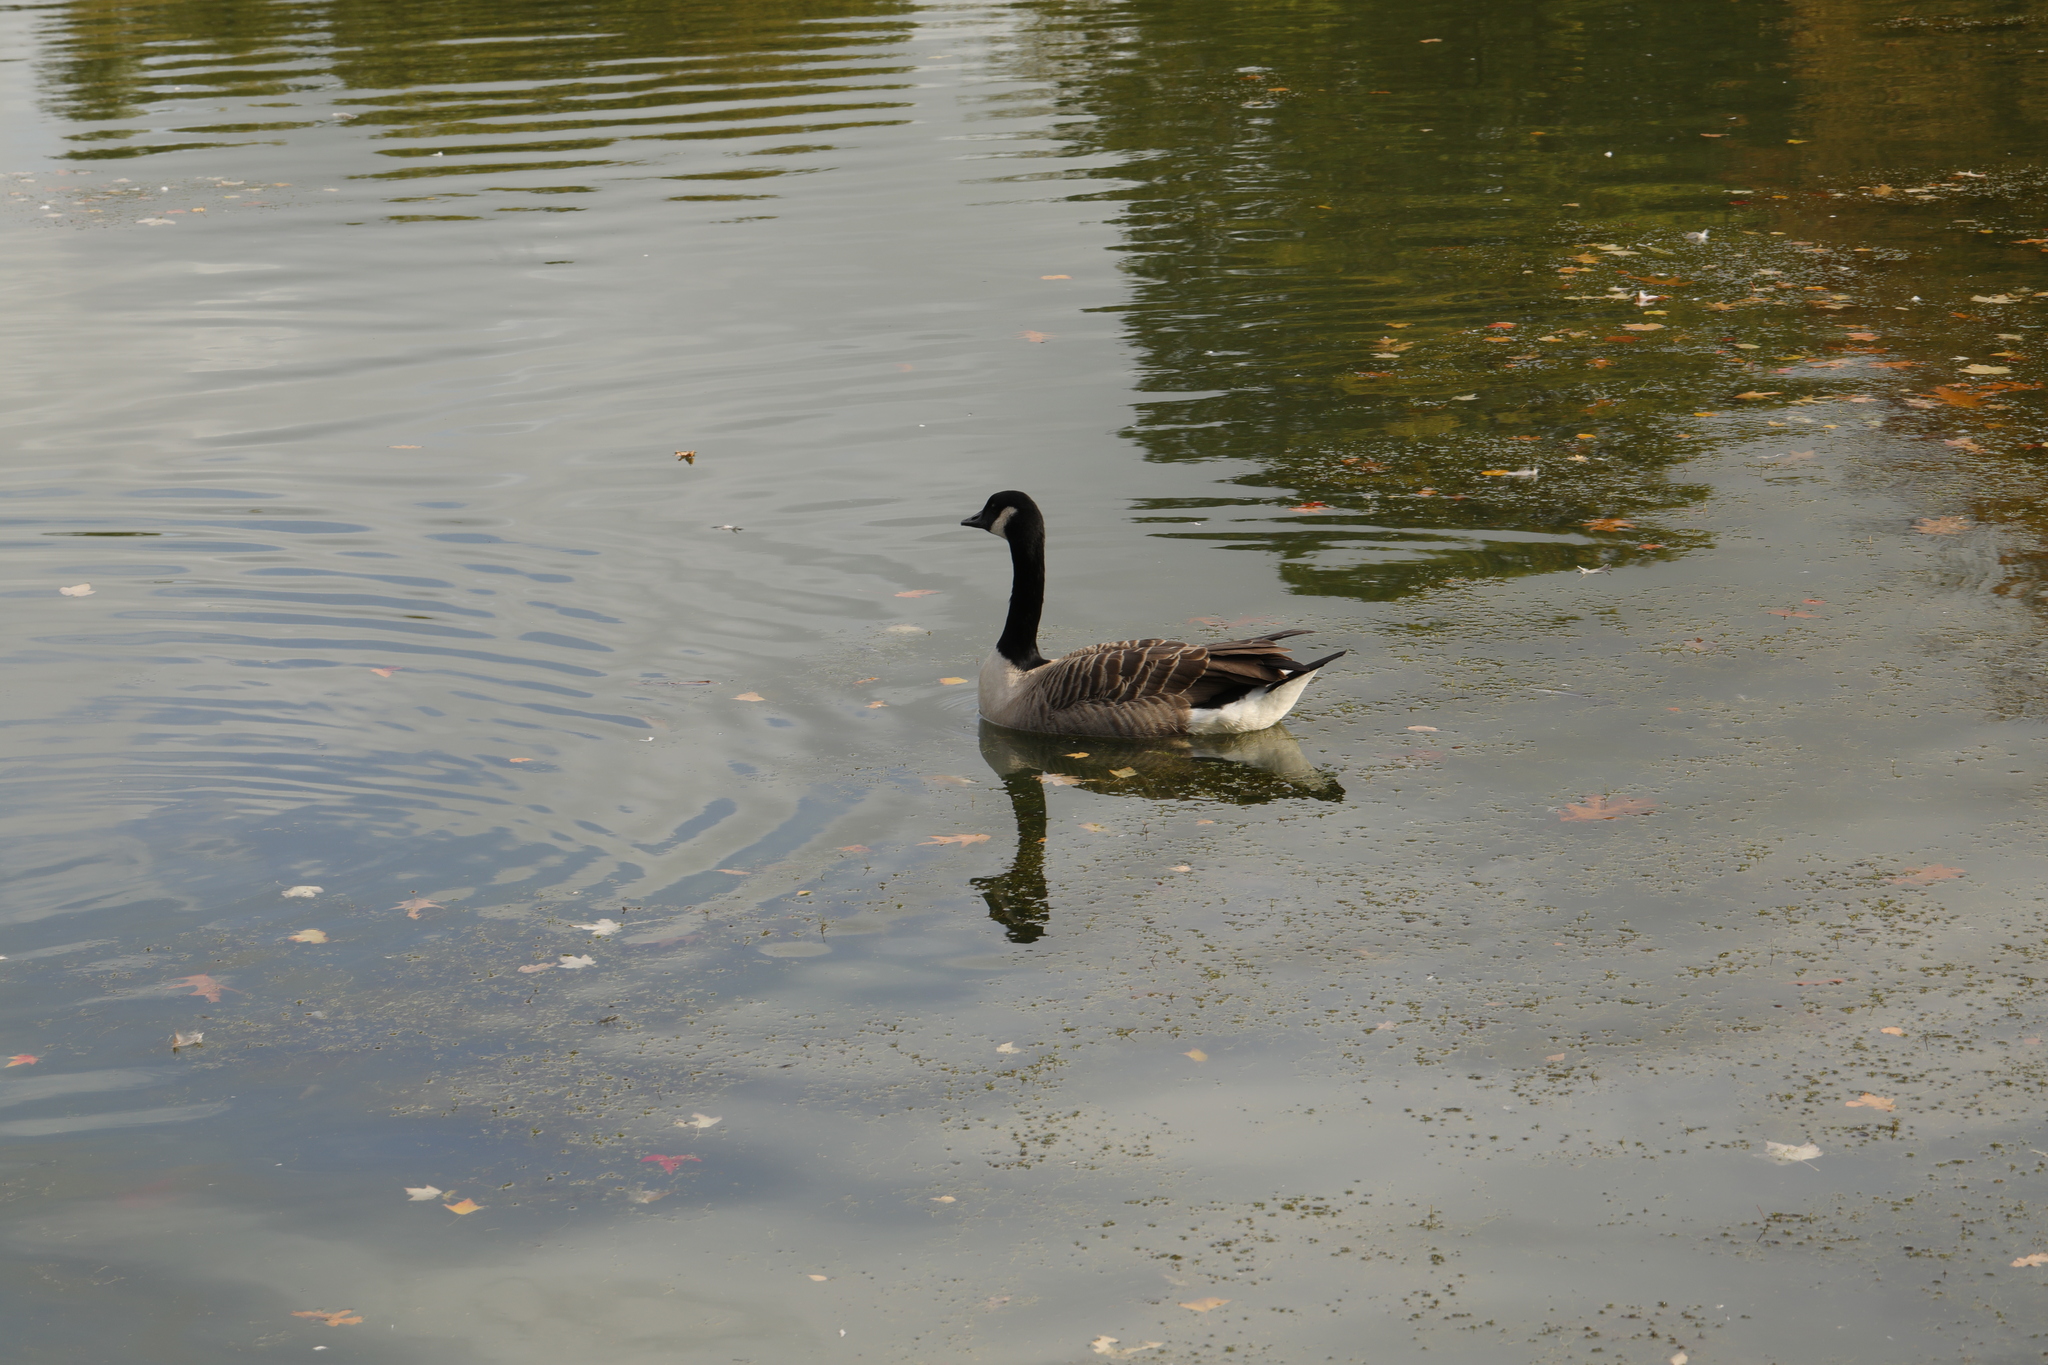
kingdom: Animalia
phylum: Chordata
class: Aves
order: Anseriformes
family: Anatidae
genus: Branta
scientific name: Branta canadensis
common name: Canada goose
